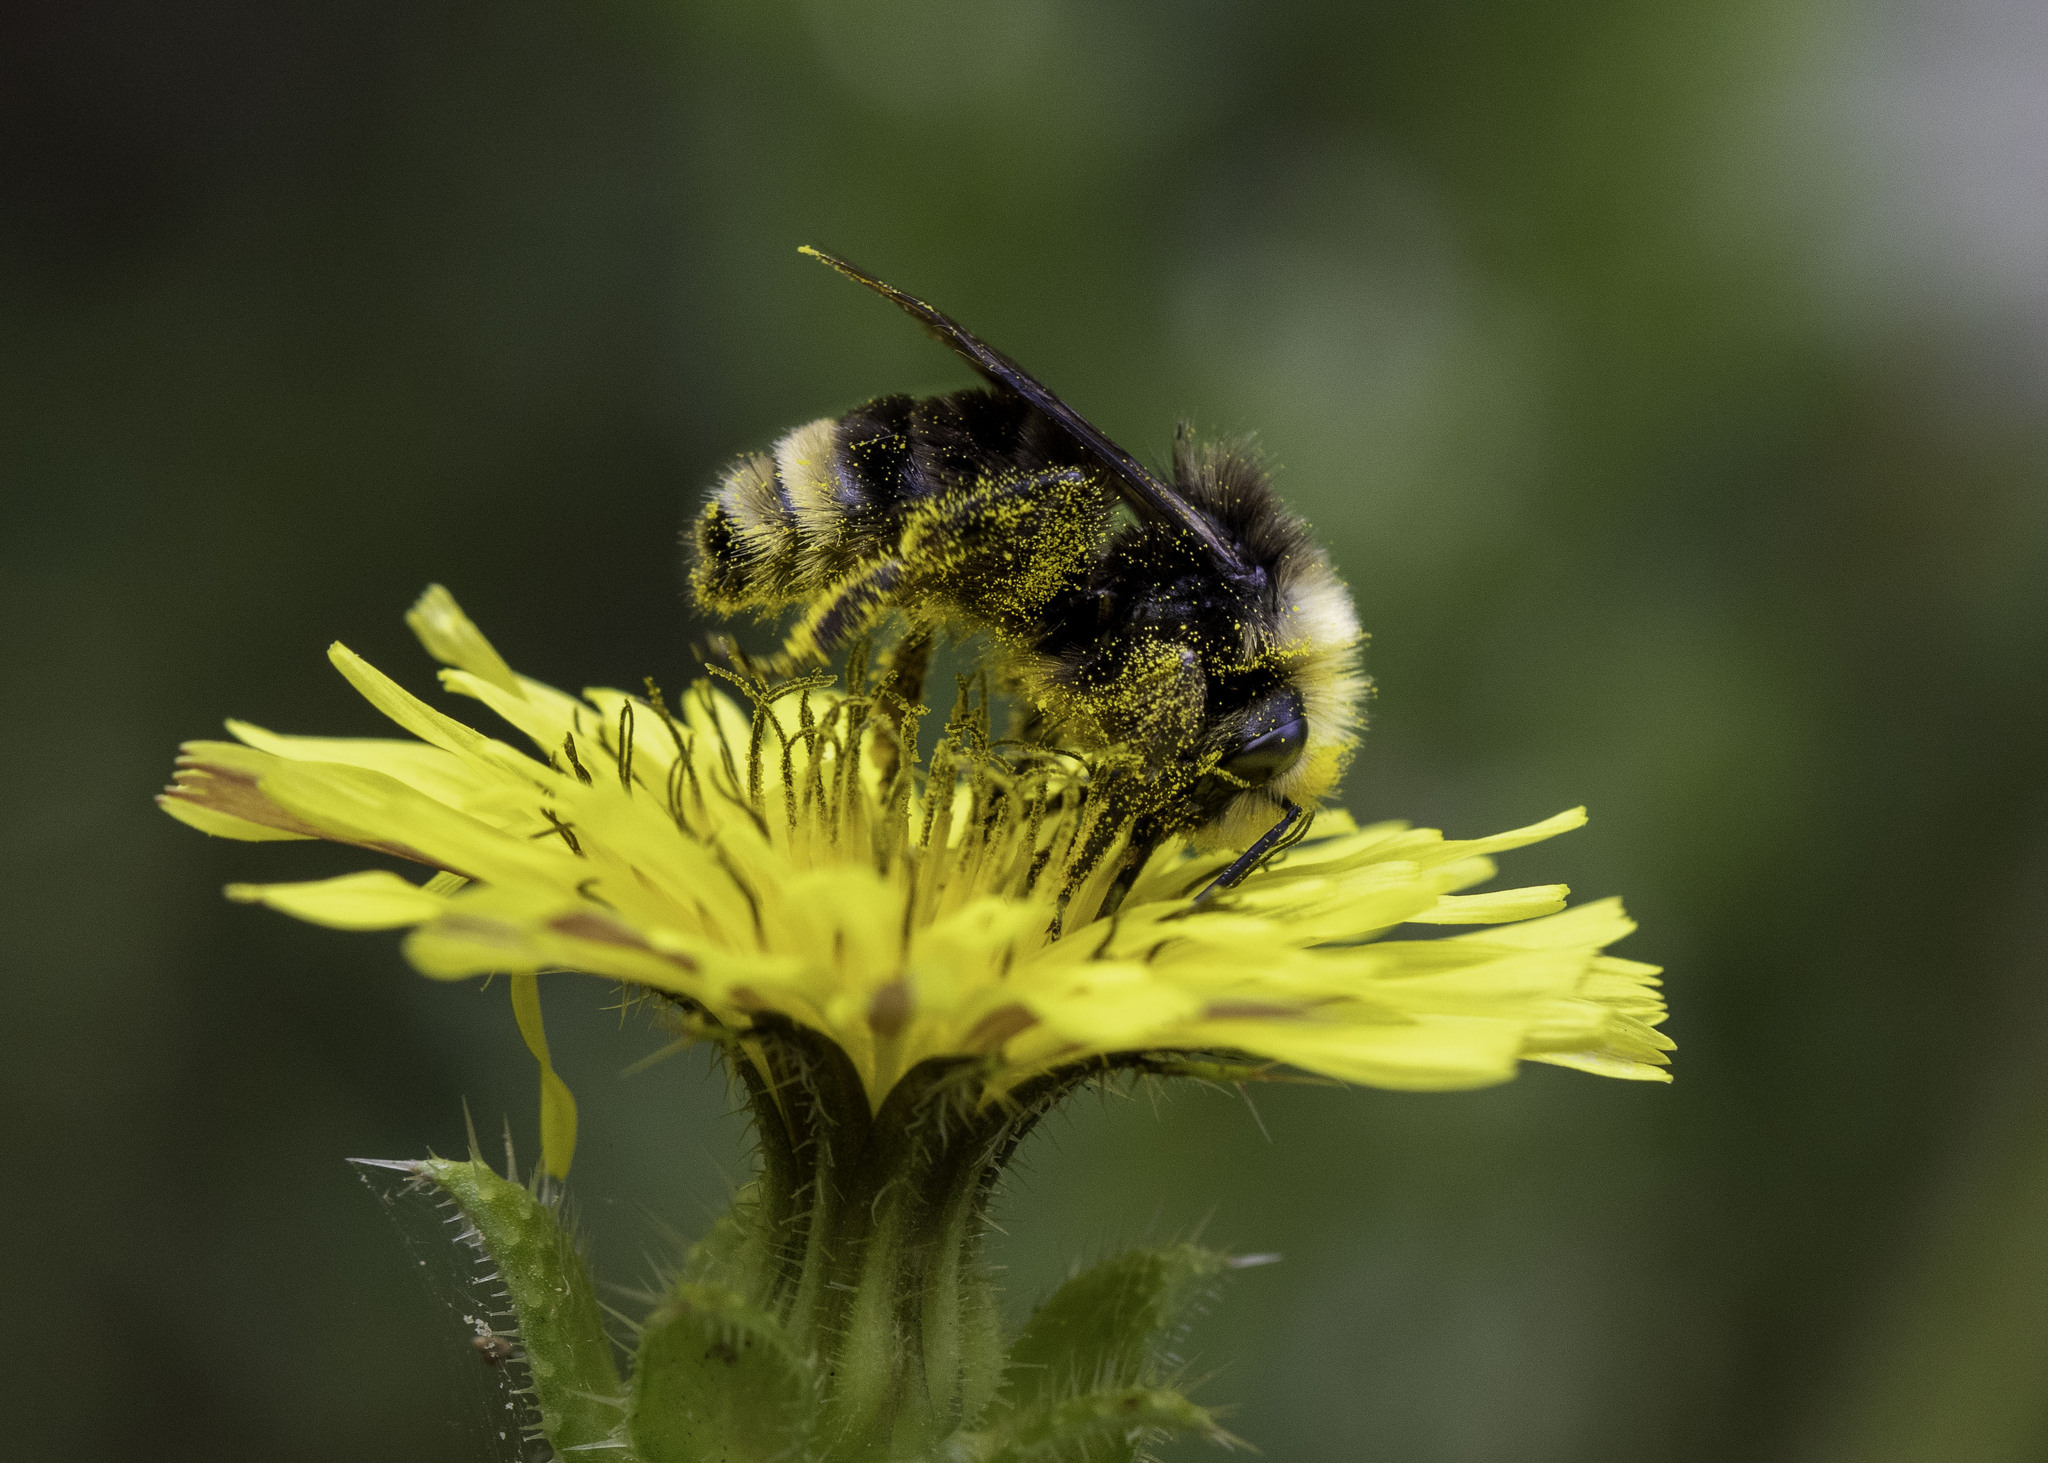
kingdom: Animalia
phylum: Arthropoda
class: Insecta
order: Hymenoptera
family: Apidae
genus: Bombus
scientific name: Bombus vosnesenskii
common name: Vosnesensky bumble bee
